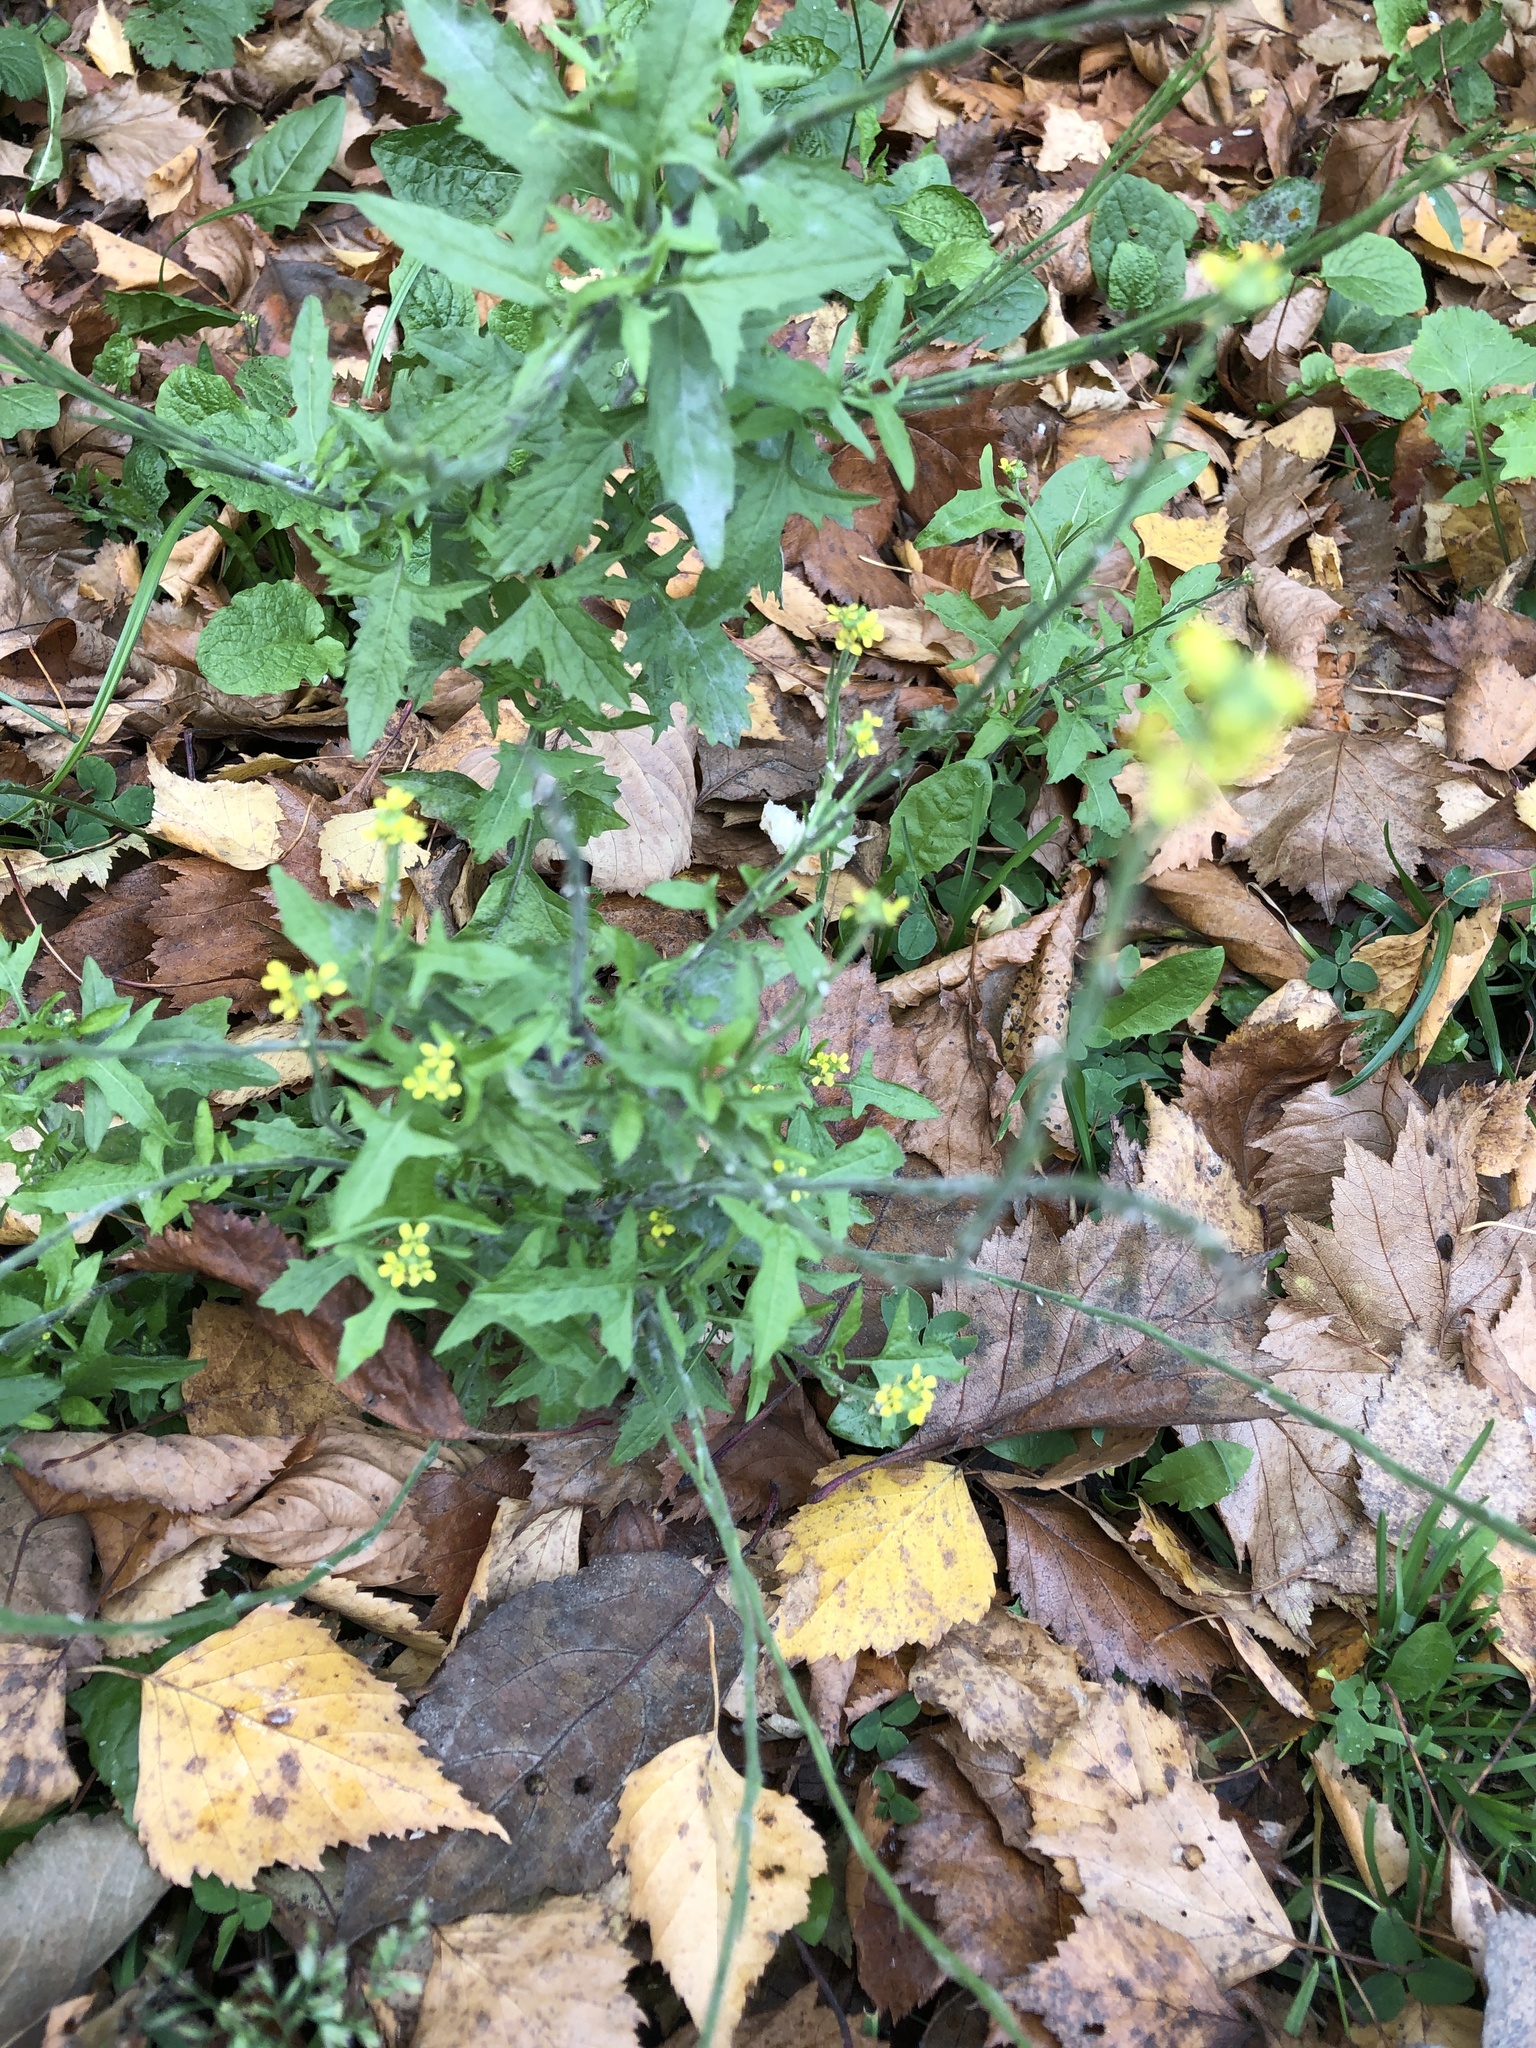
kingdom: Plantae
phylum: Tracheophyta
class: Magnoliopsida
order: Brassicales
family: Brassicaceae
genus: Sisymbrium
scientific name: Sisymbrium officinale
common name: Hedge mustard
